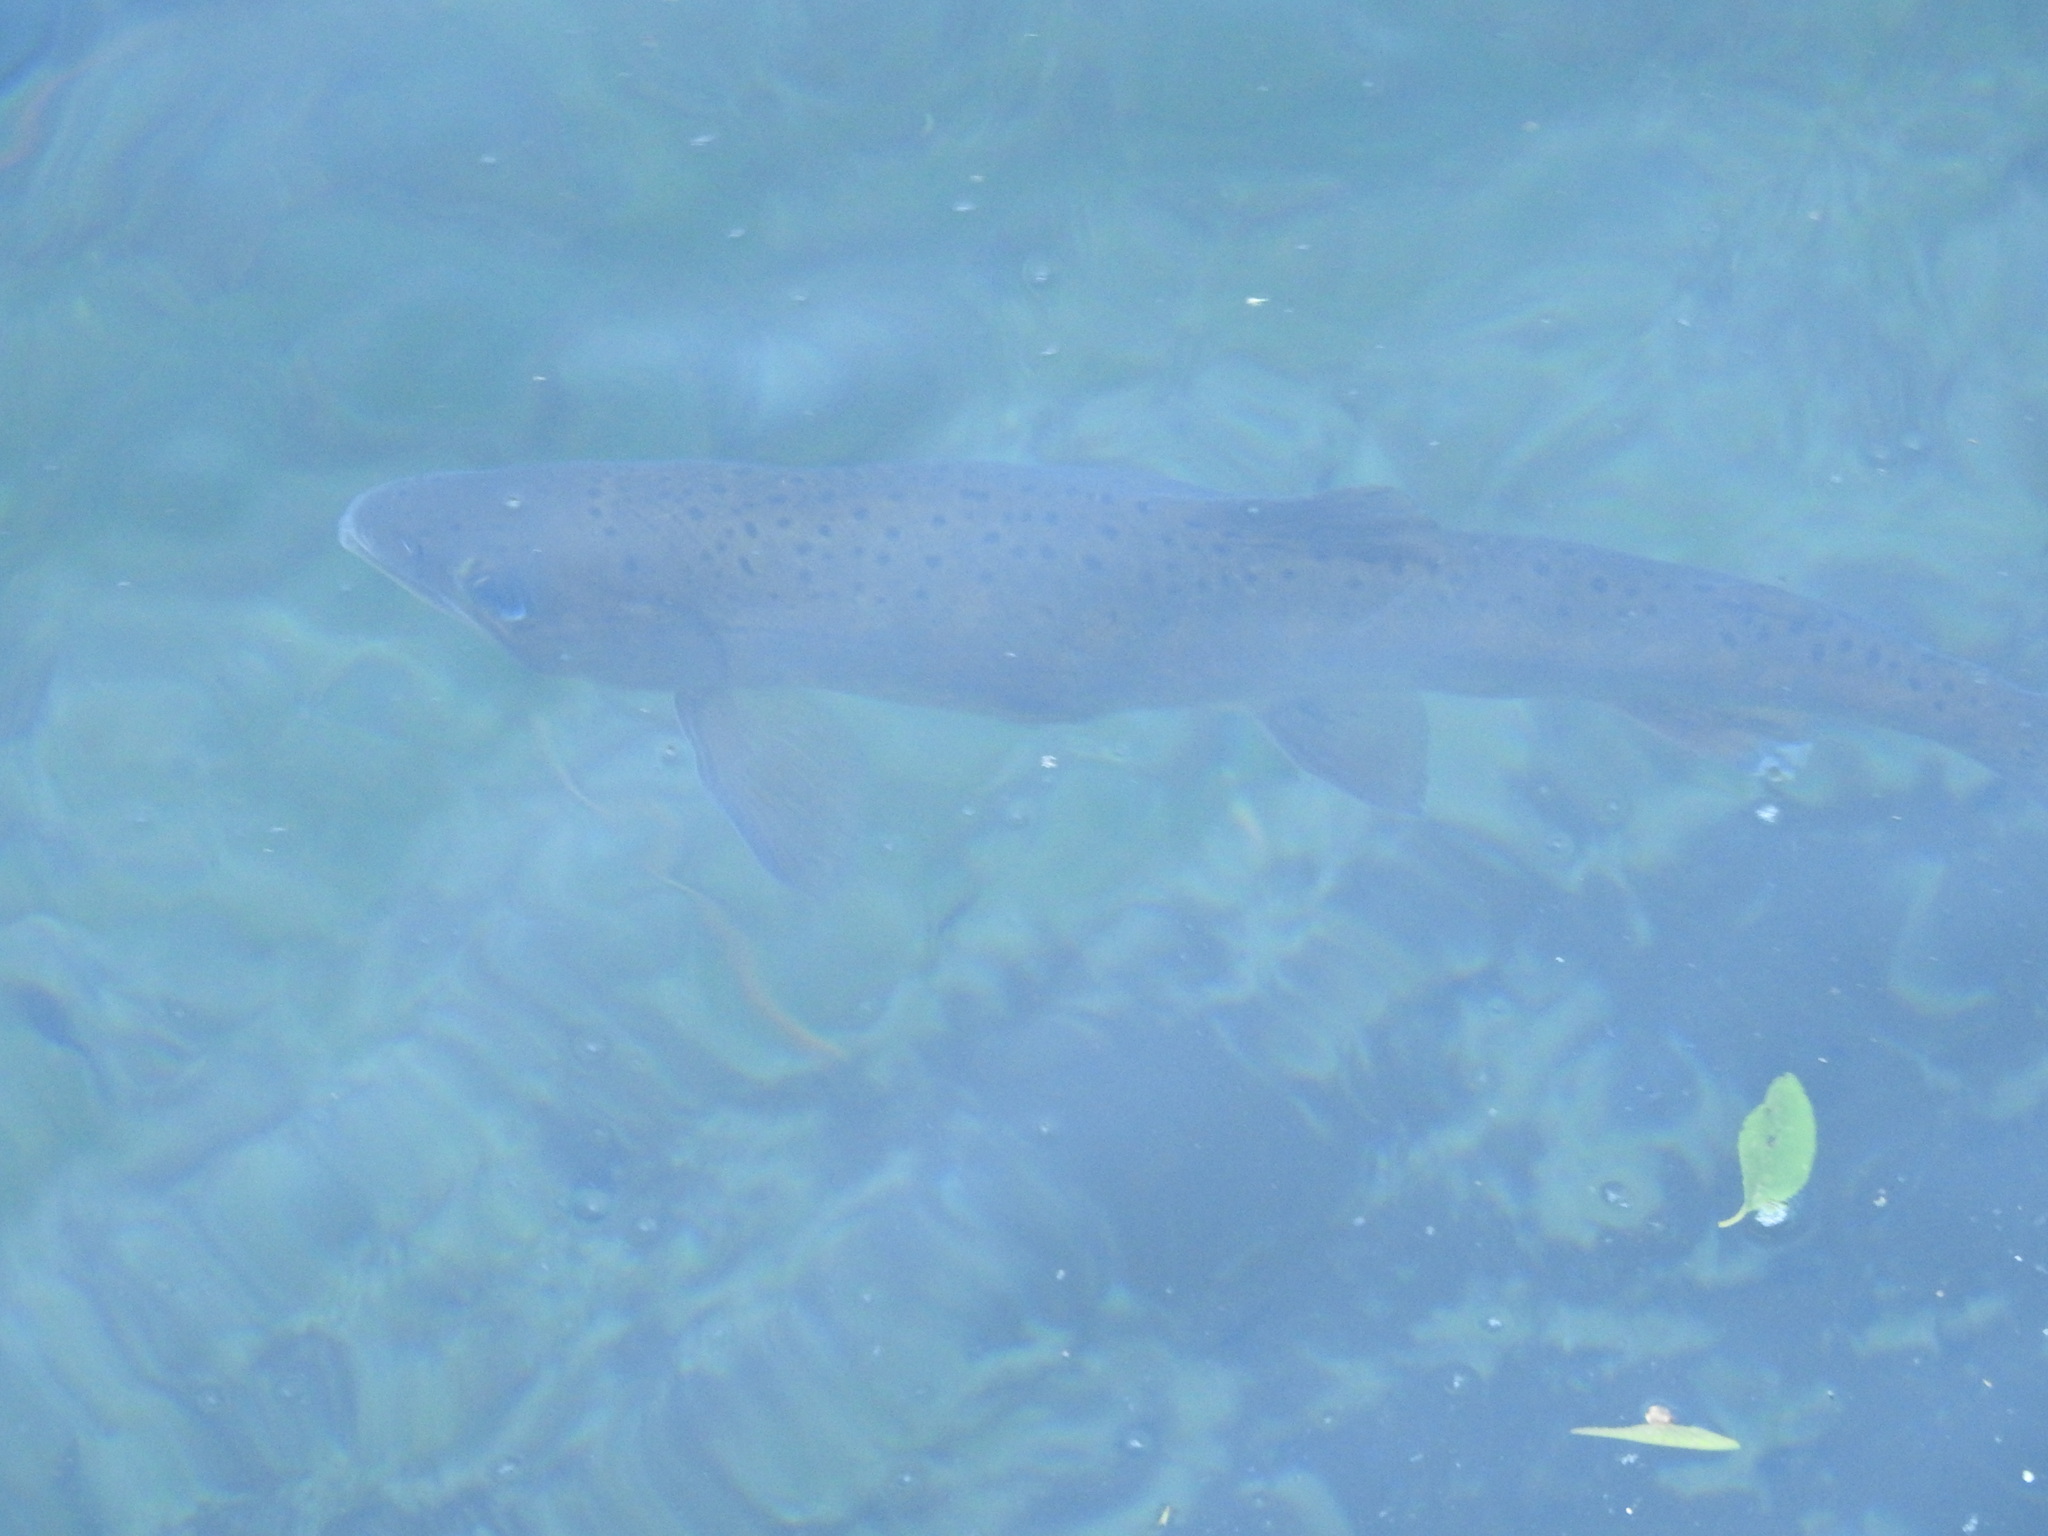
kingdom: Animalia
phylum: Chordata
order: Salmoniformes
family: Salmonidae
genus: Oncorhynchus
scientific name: Oncorhynchus formosanus
